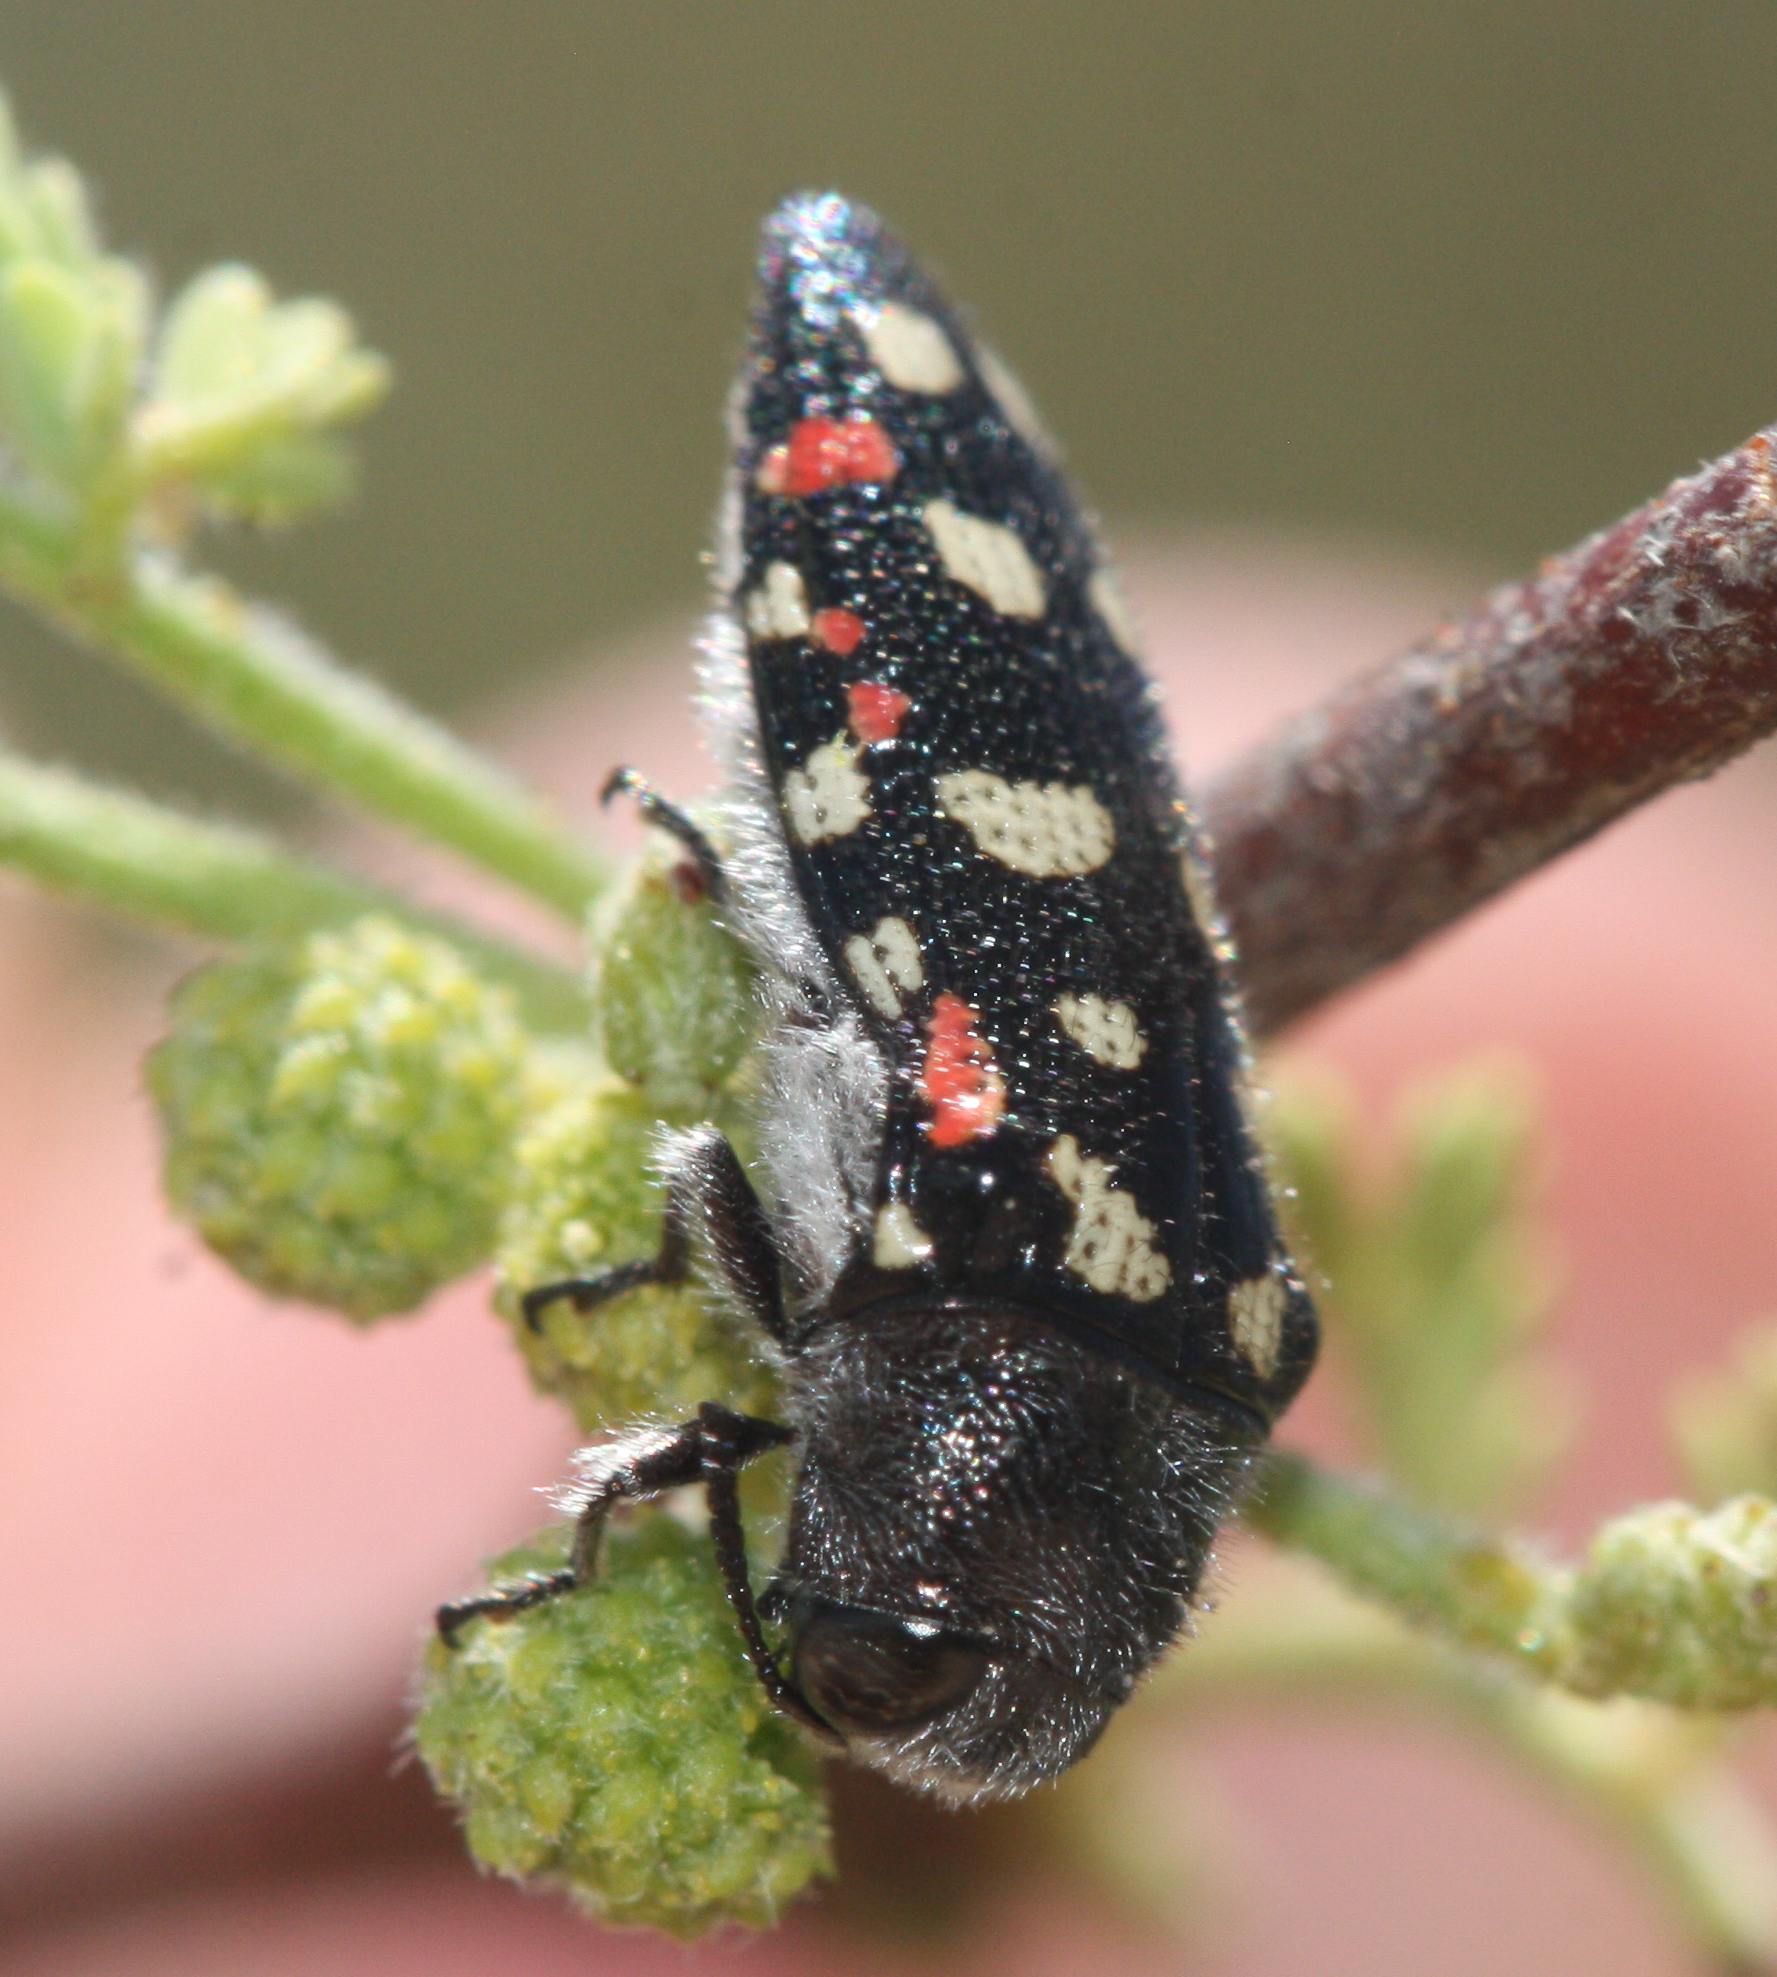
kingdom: Animalia
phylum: Arthropoda
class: Insecta
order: Coleoptera
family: Buprestidae
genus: Acmaeodera
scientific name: Acmaeodera gibbula
